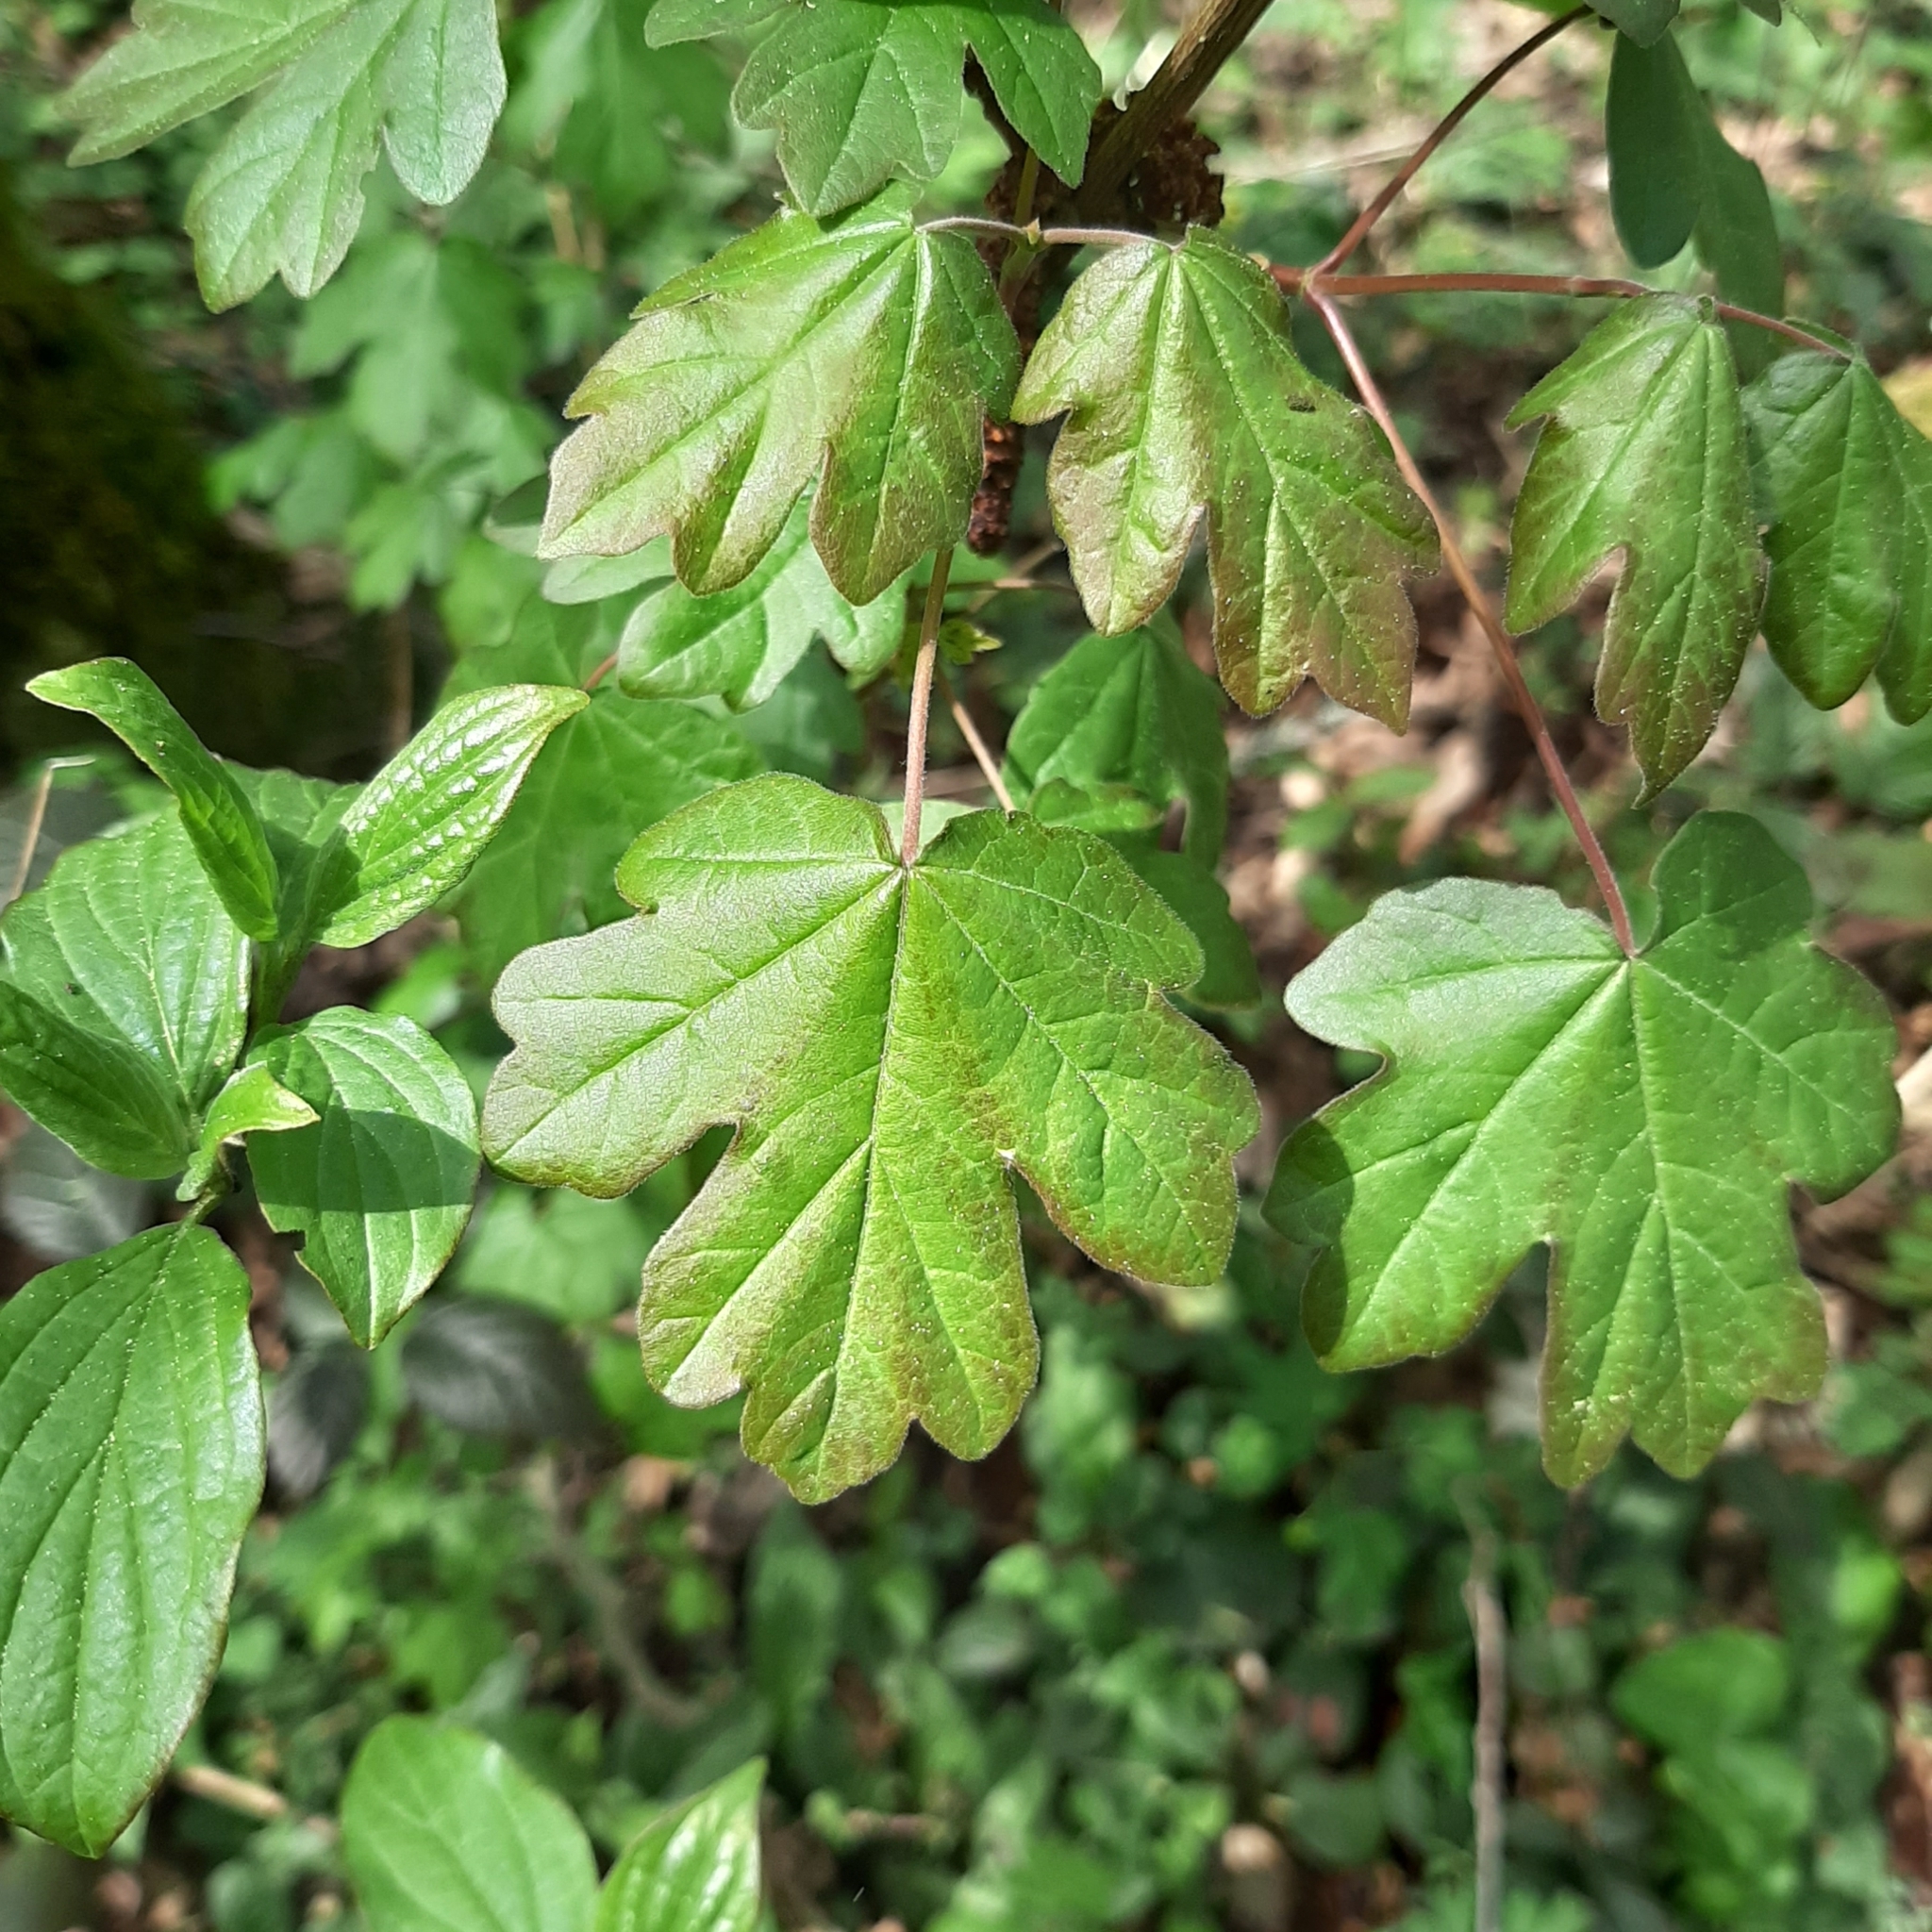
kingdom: Plantae
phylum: Tracheophyta
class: Magnoliopsida
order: Sapindales
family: Sapindaceae
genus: Acer
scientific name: Acer campestre
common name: Field maple
